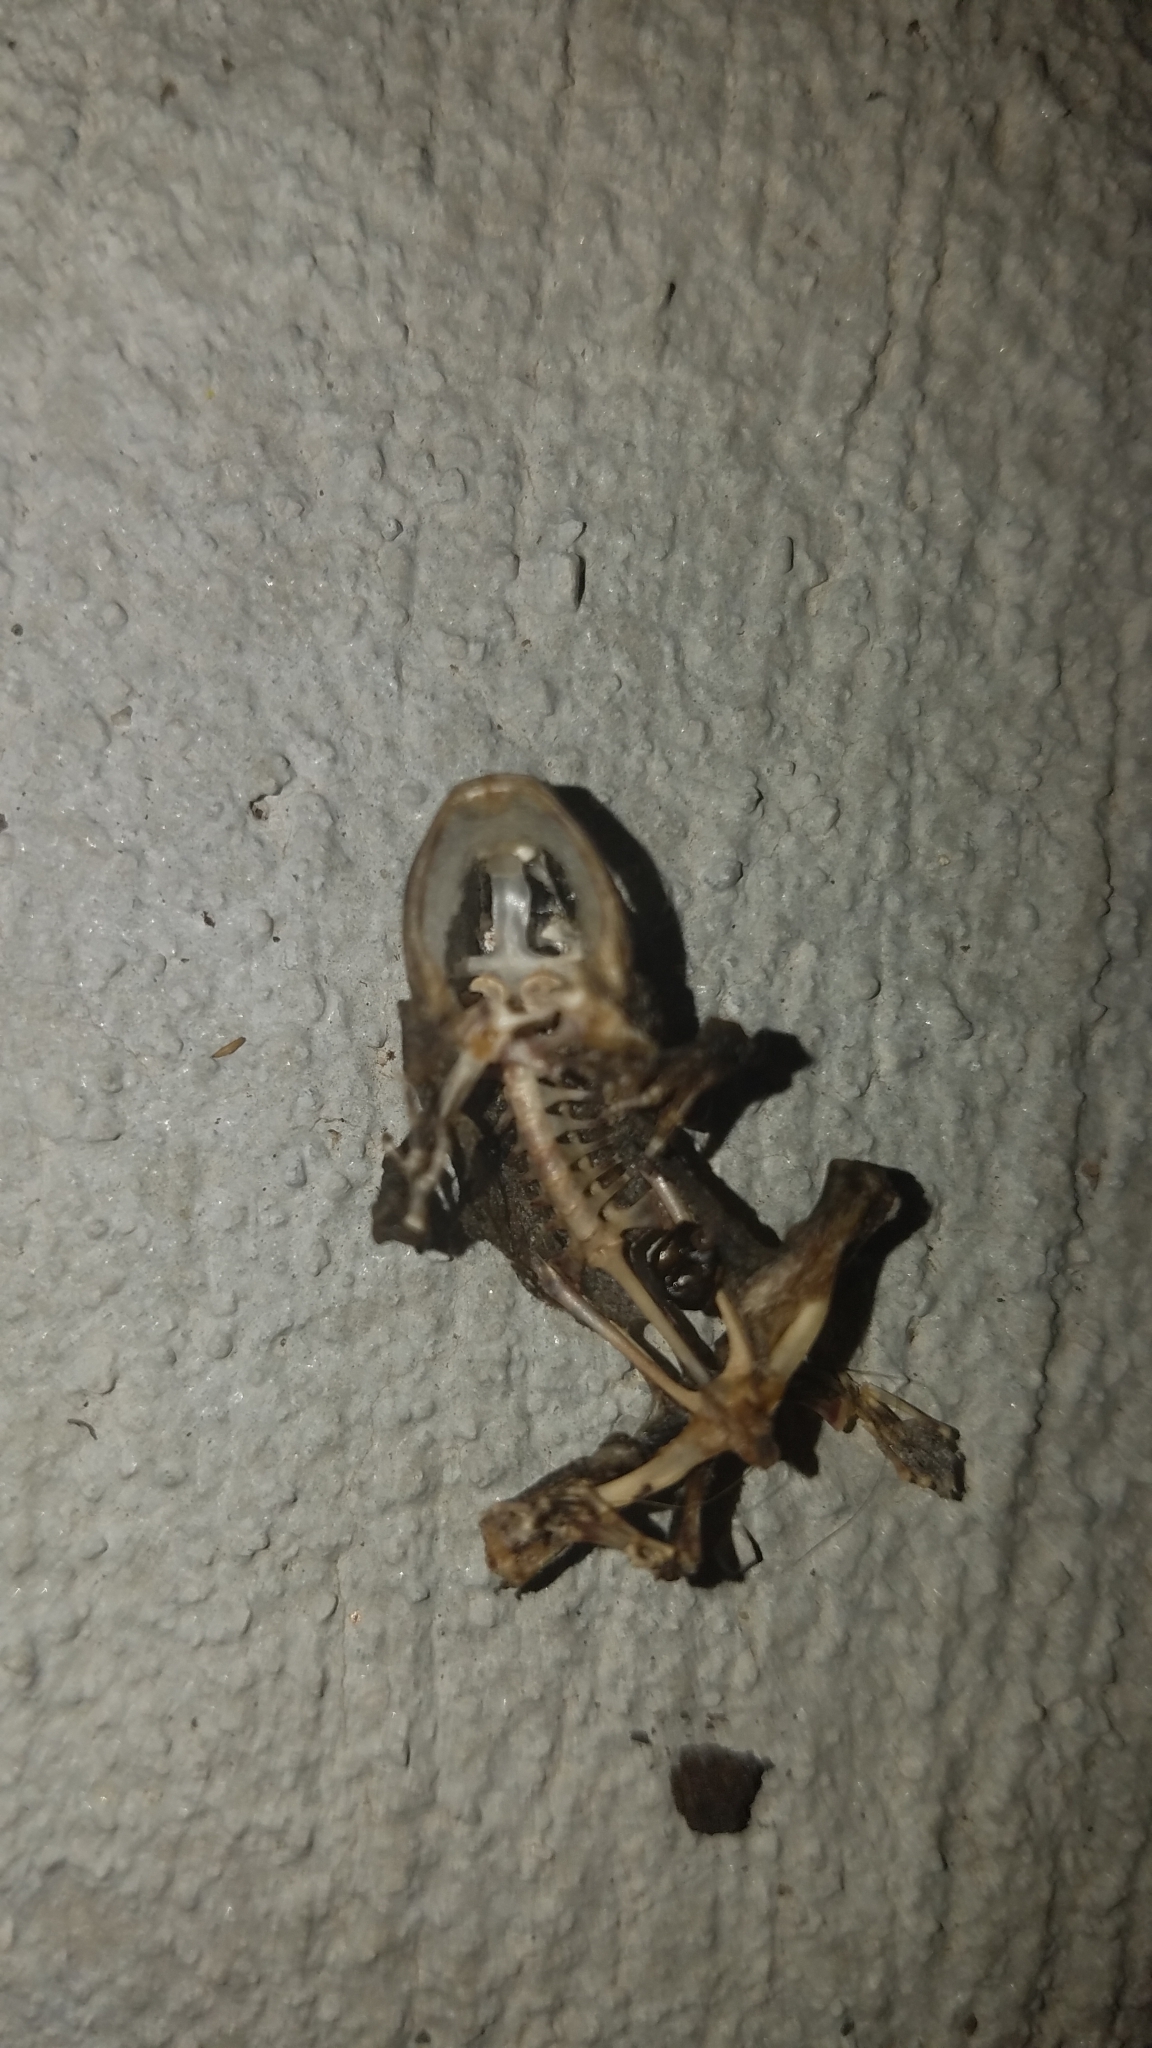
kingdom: Animalia
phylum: Chordata
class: Amphibia
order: Anura
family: Bufonidae
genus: Anaxyrus
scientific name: Anaxyrus americanus
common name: American toad
